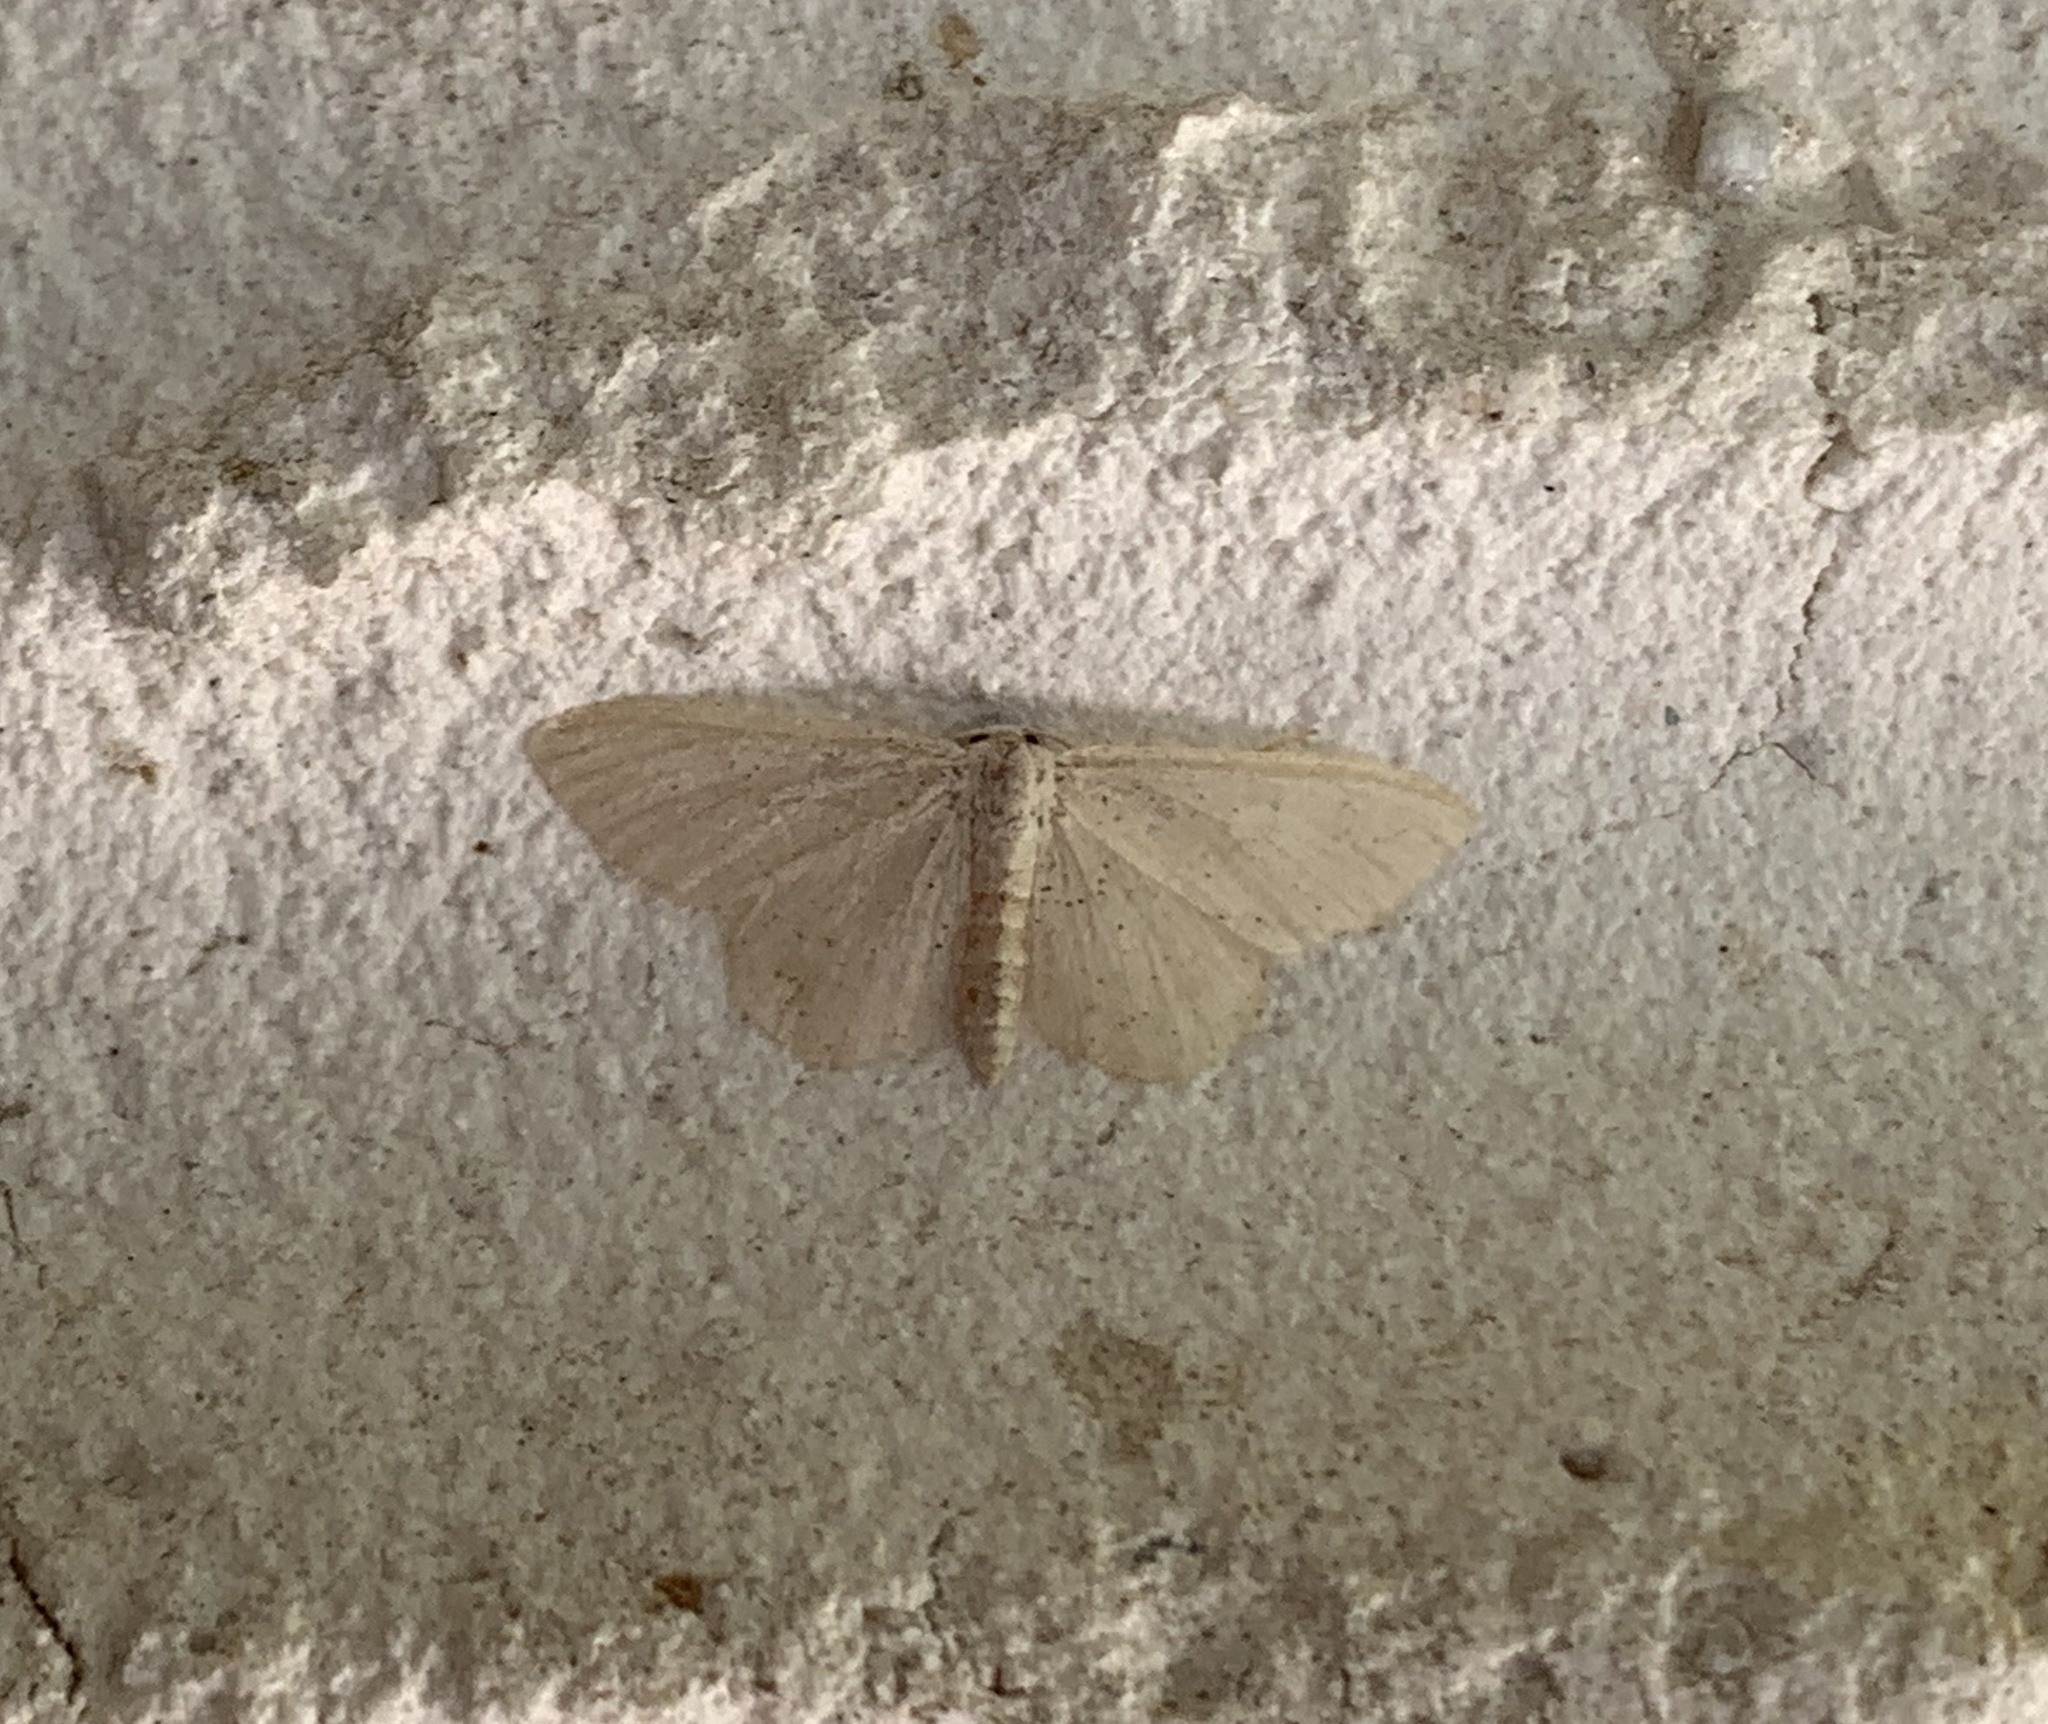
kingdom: Animalia
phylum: Arthropoda
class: Insecta
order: Lepidoptera
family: Geometridae
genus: Idaea
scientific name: Idaea distinctaria
